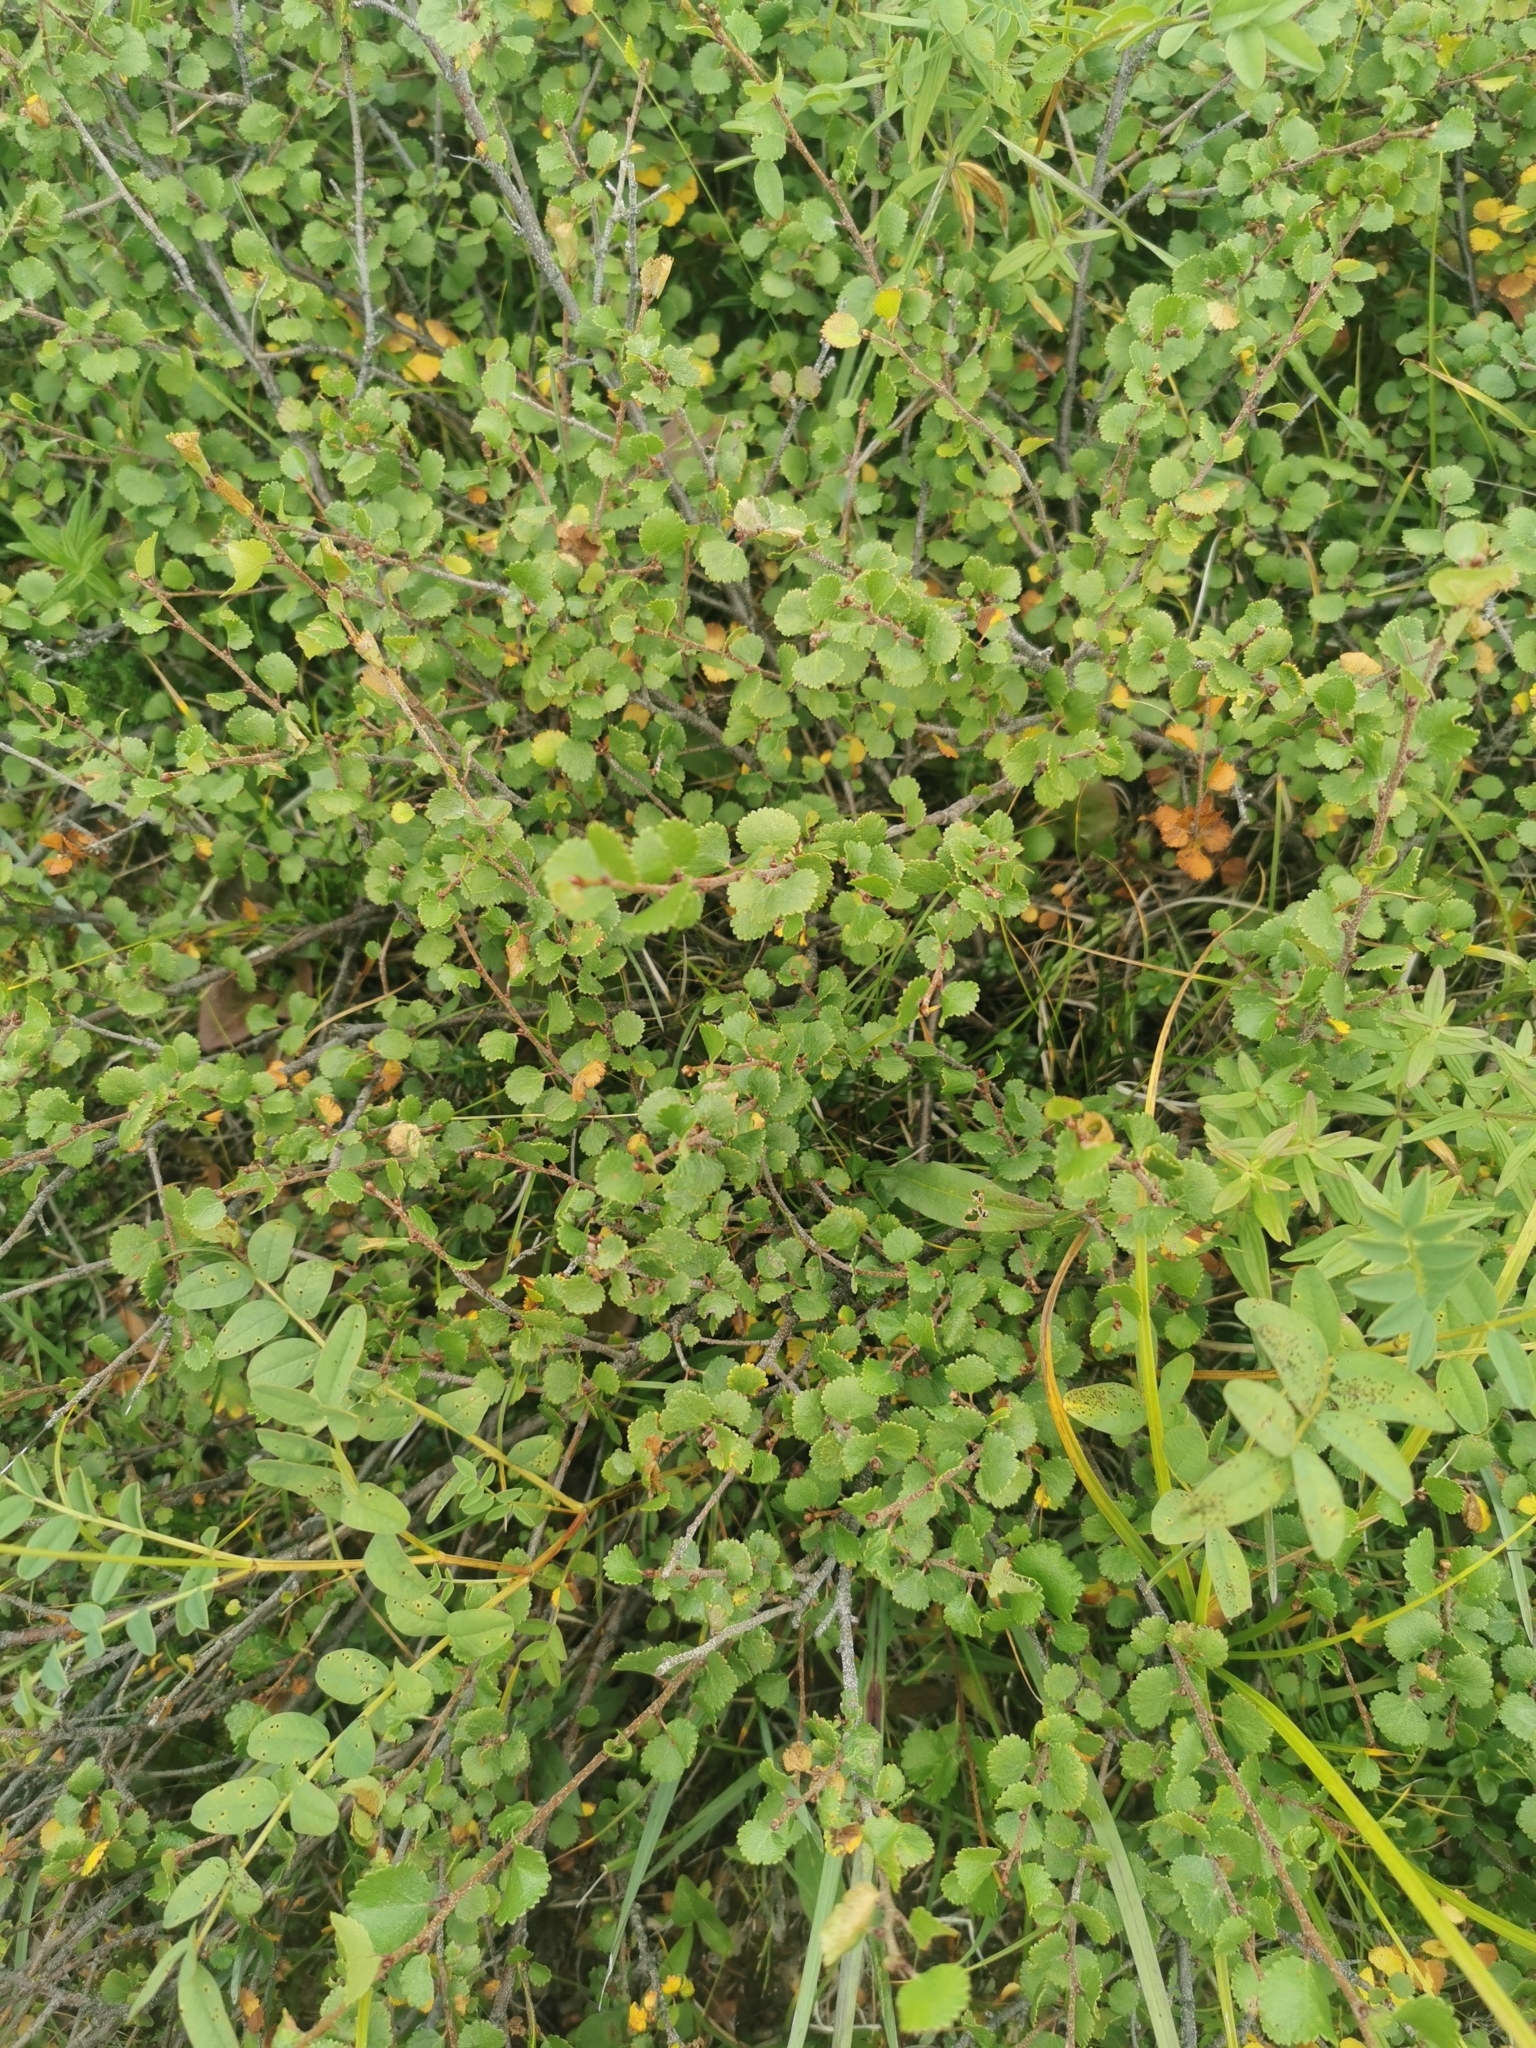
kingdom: Plantae
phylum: Tracheophyta
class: Magnoliopsida
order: Fagales
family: Betulaceae
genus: Betula
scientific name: Betula glandulosa
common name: Dwarf birch
